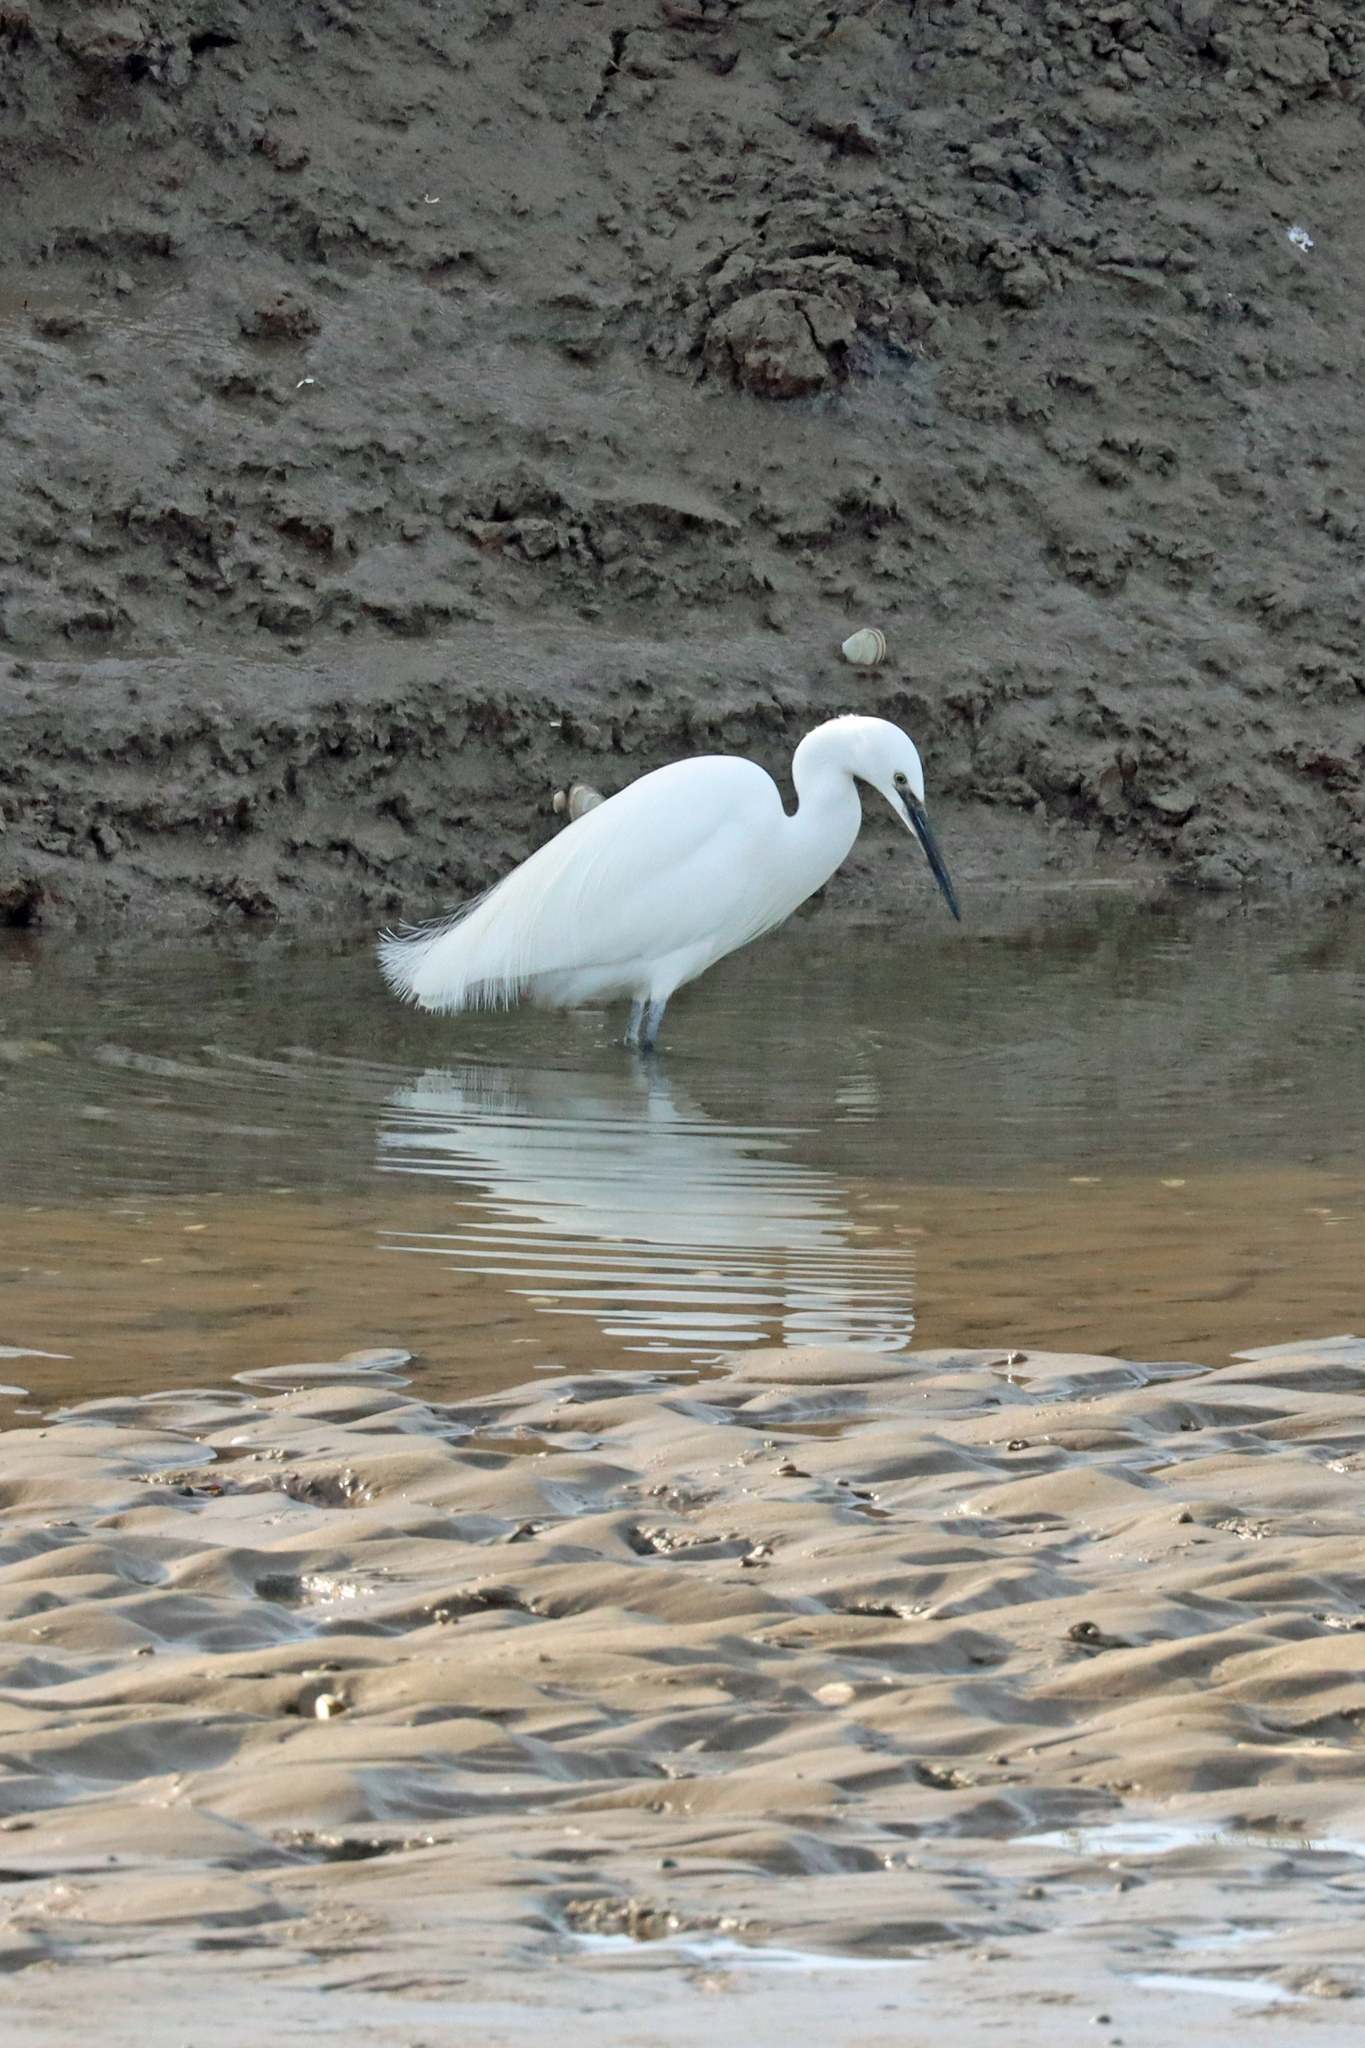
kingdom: Animalia
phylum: Chordata
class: Aves
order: Pelecaniformes
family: Ardeidae
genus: Egretta
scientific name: Egretta garzetta
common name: Little egret
